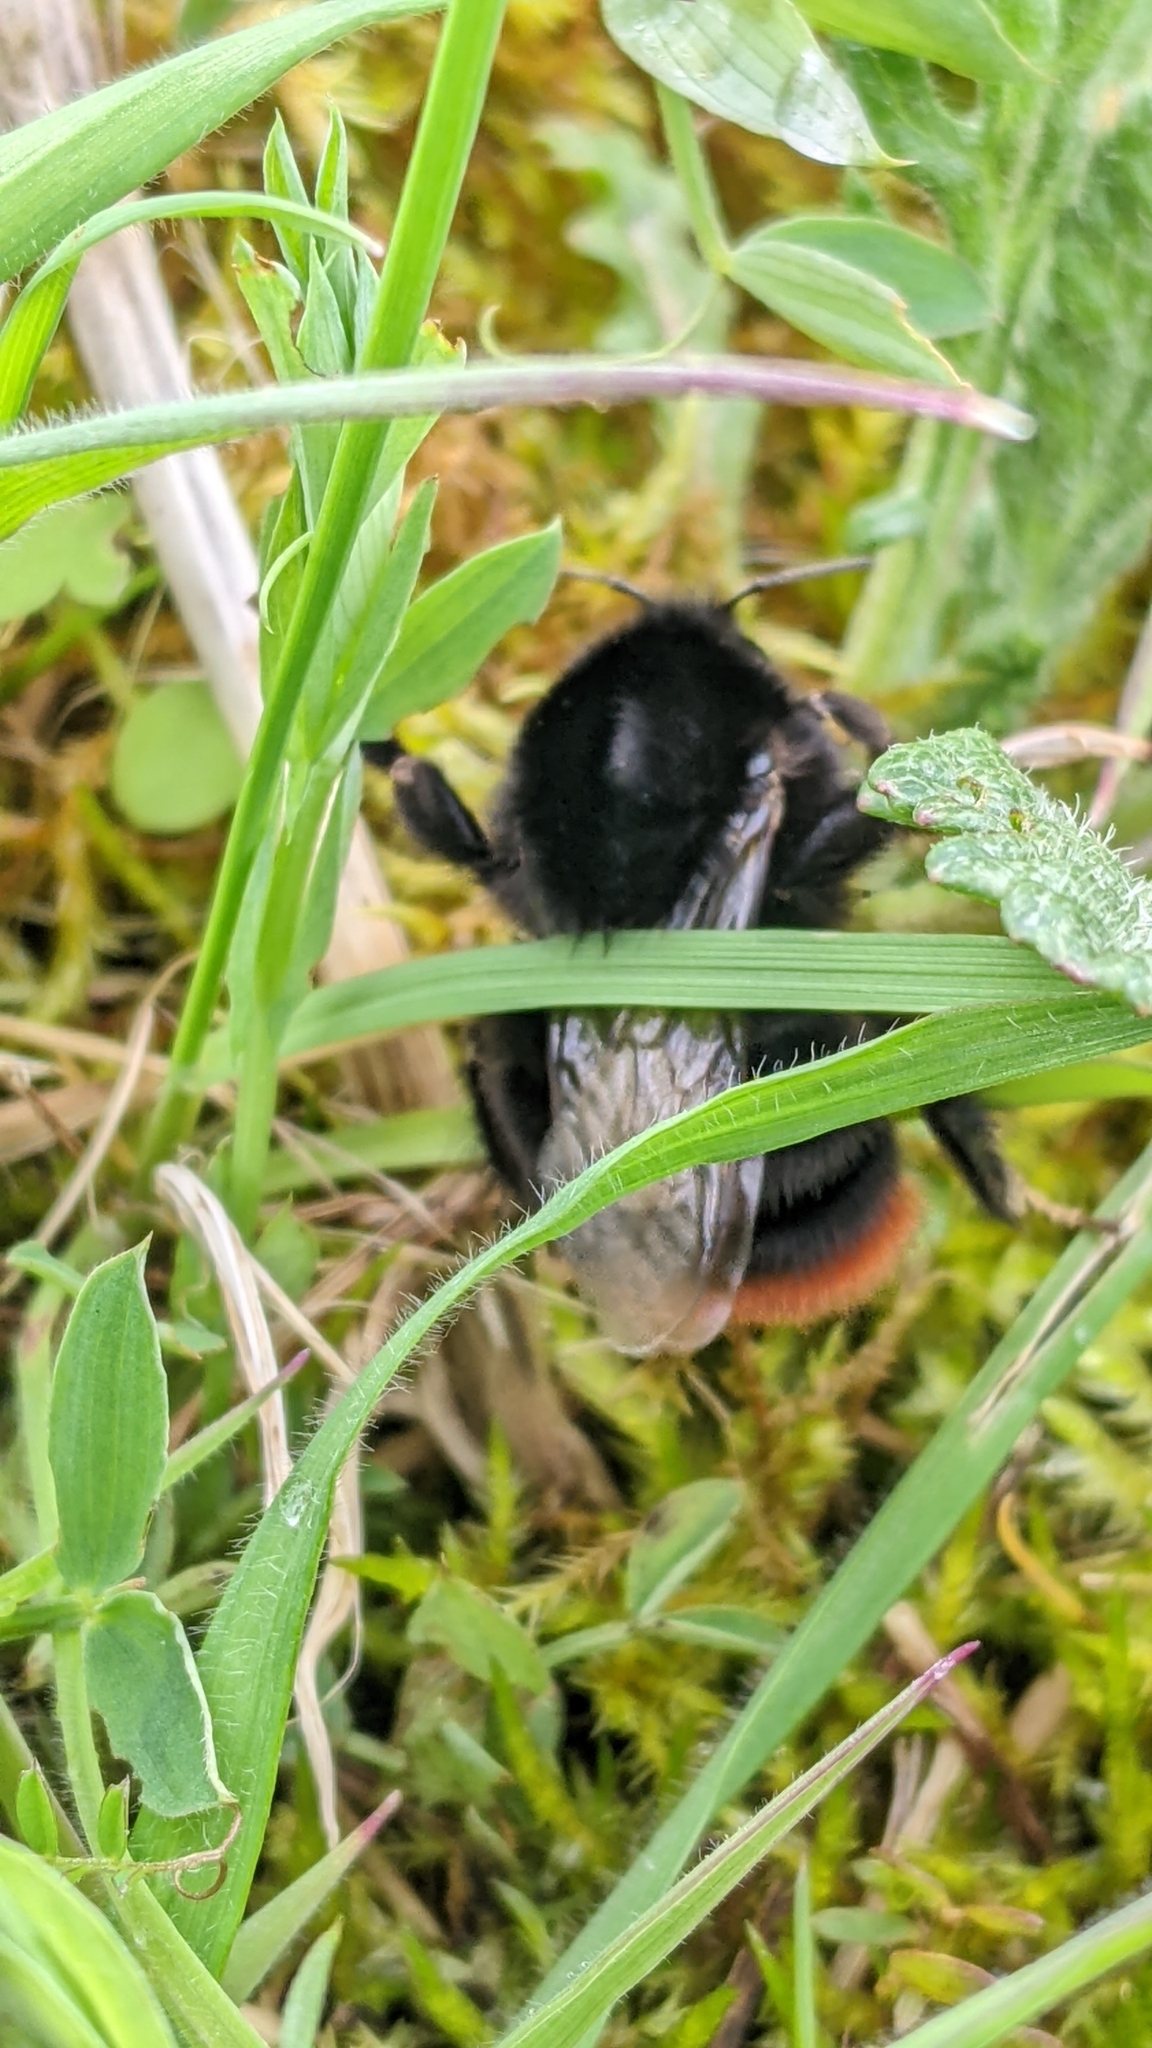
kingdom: Animalia
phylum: Arthropoda
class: Insecta
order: Hymenoptera
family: Apidae
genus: Bombus
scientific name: Bombus lapidarius
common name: Large red-tailed humble-bee
